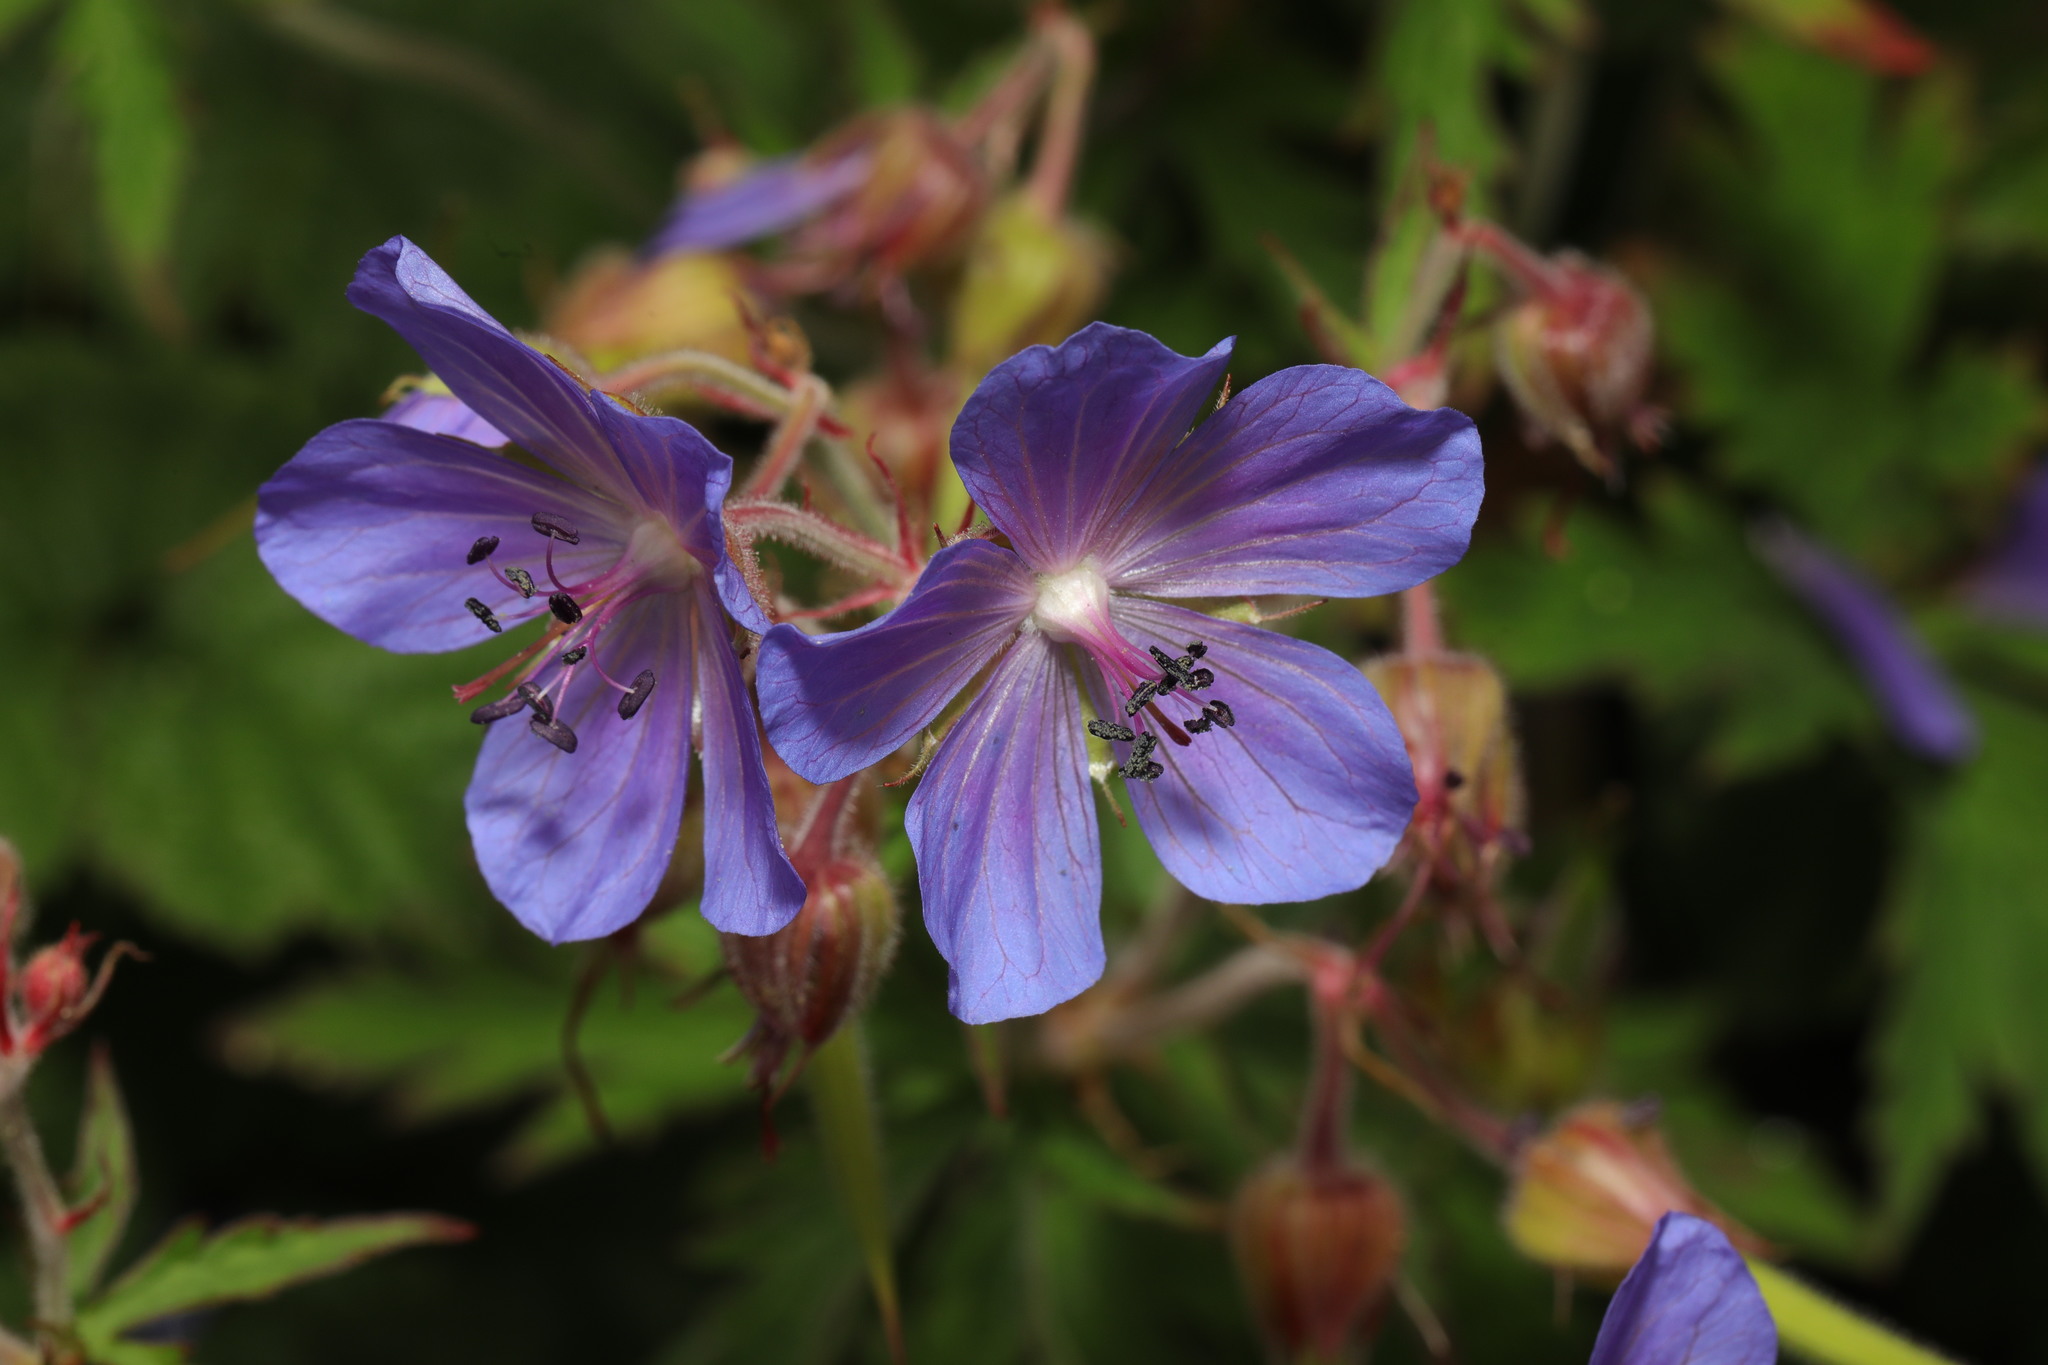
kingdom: Plantae
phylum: Tracheophyta
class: Magnoliopsida
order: Geraniales
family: Geraniaceae
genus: Geranium
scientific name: Geranium pratense
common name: Meadow crane's-bill
